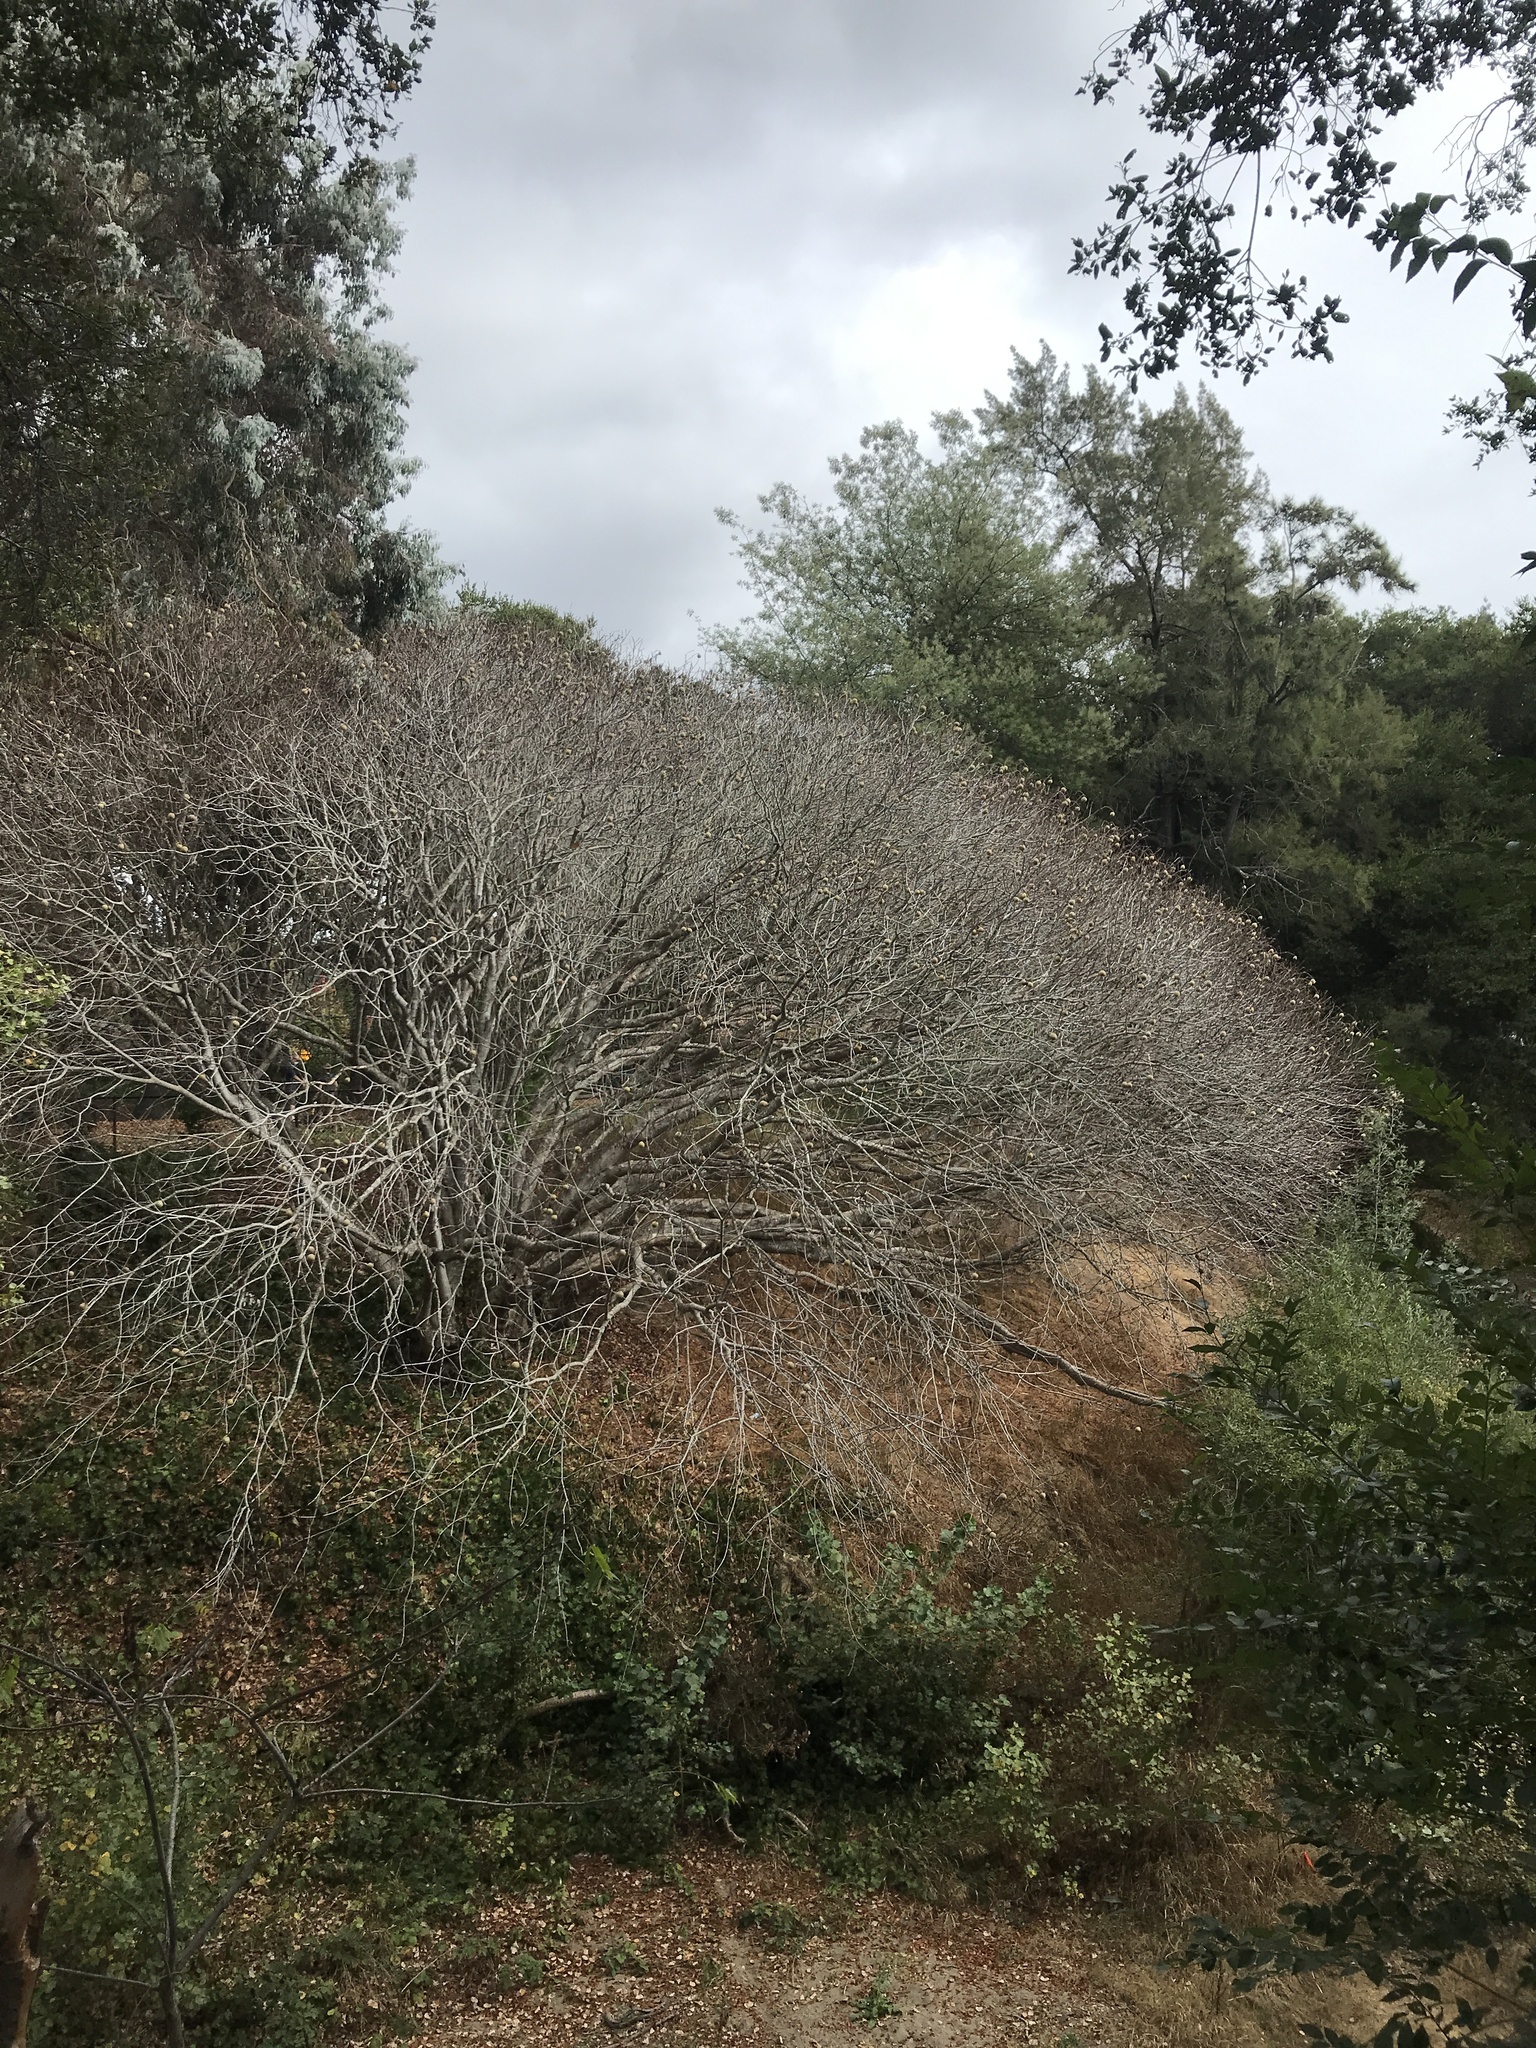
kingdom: Plantae
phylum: Tracheophyta
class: Magnoliopsida
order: Sapindales
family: Sapindaceae
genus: Aesculus
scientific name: Aesculus californica
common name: California buckeye
